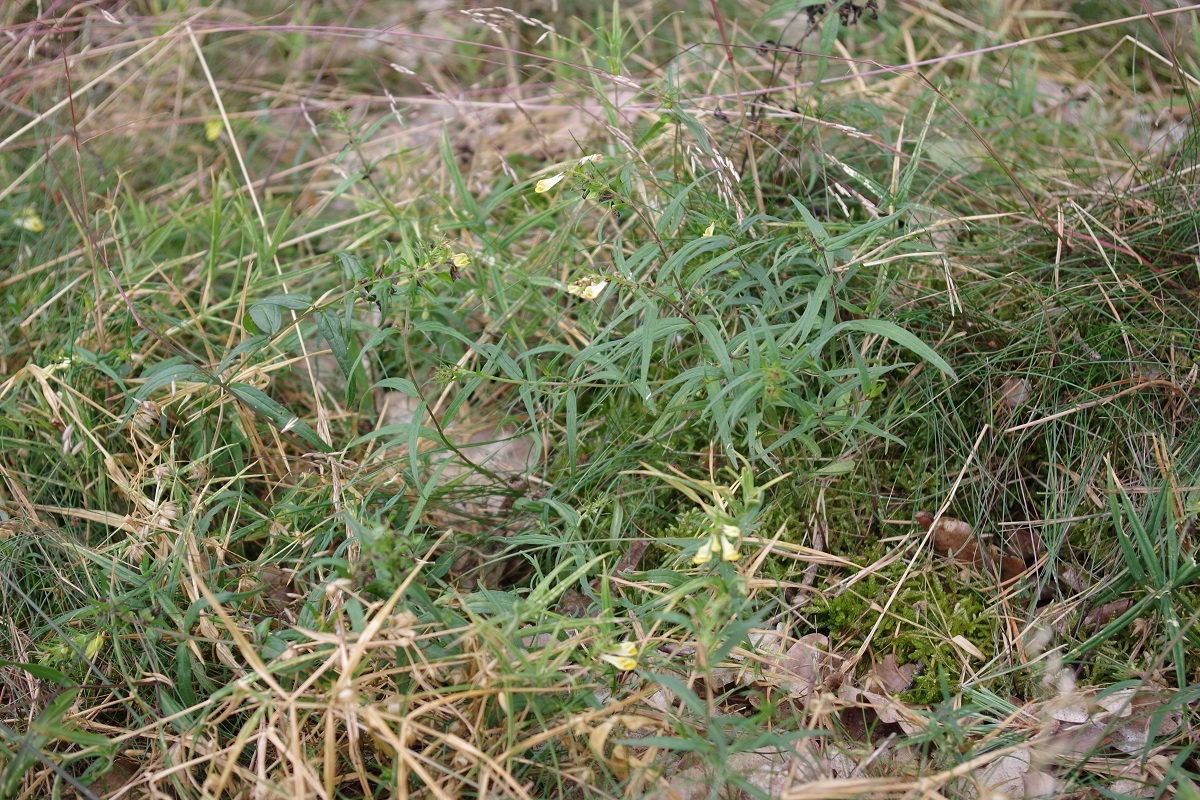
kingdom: Plantae
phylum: Tracheophyta
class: Magnoliopsida
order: Lamiales
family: Orobanchaceae
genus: Melampyrum
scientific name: Melampyrum pratense
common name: Common cow-wheat
